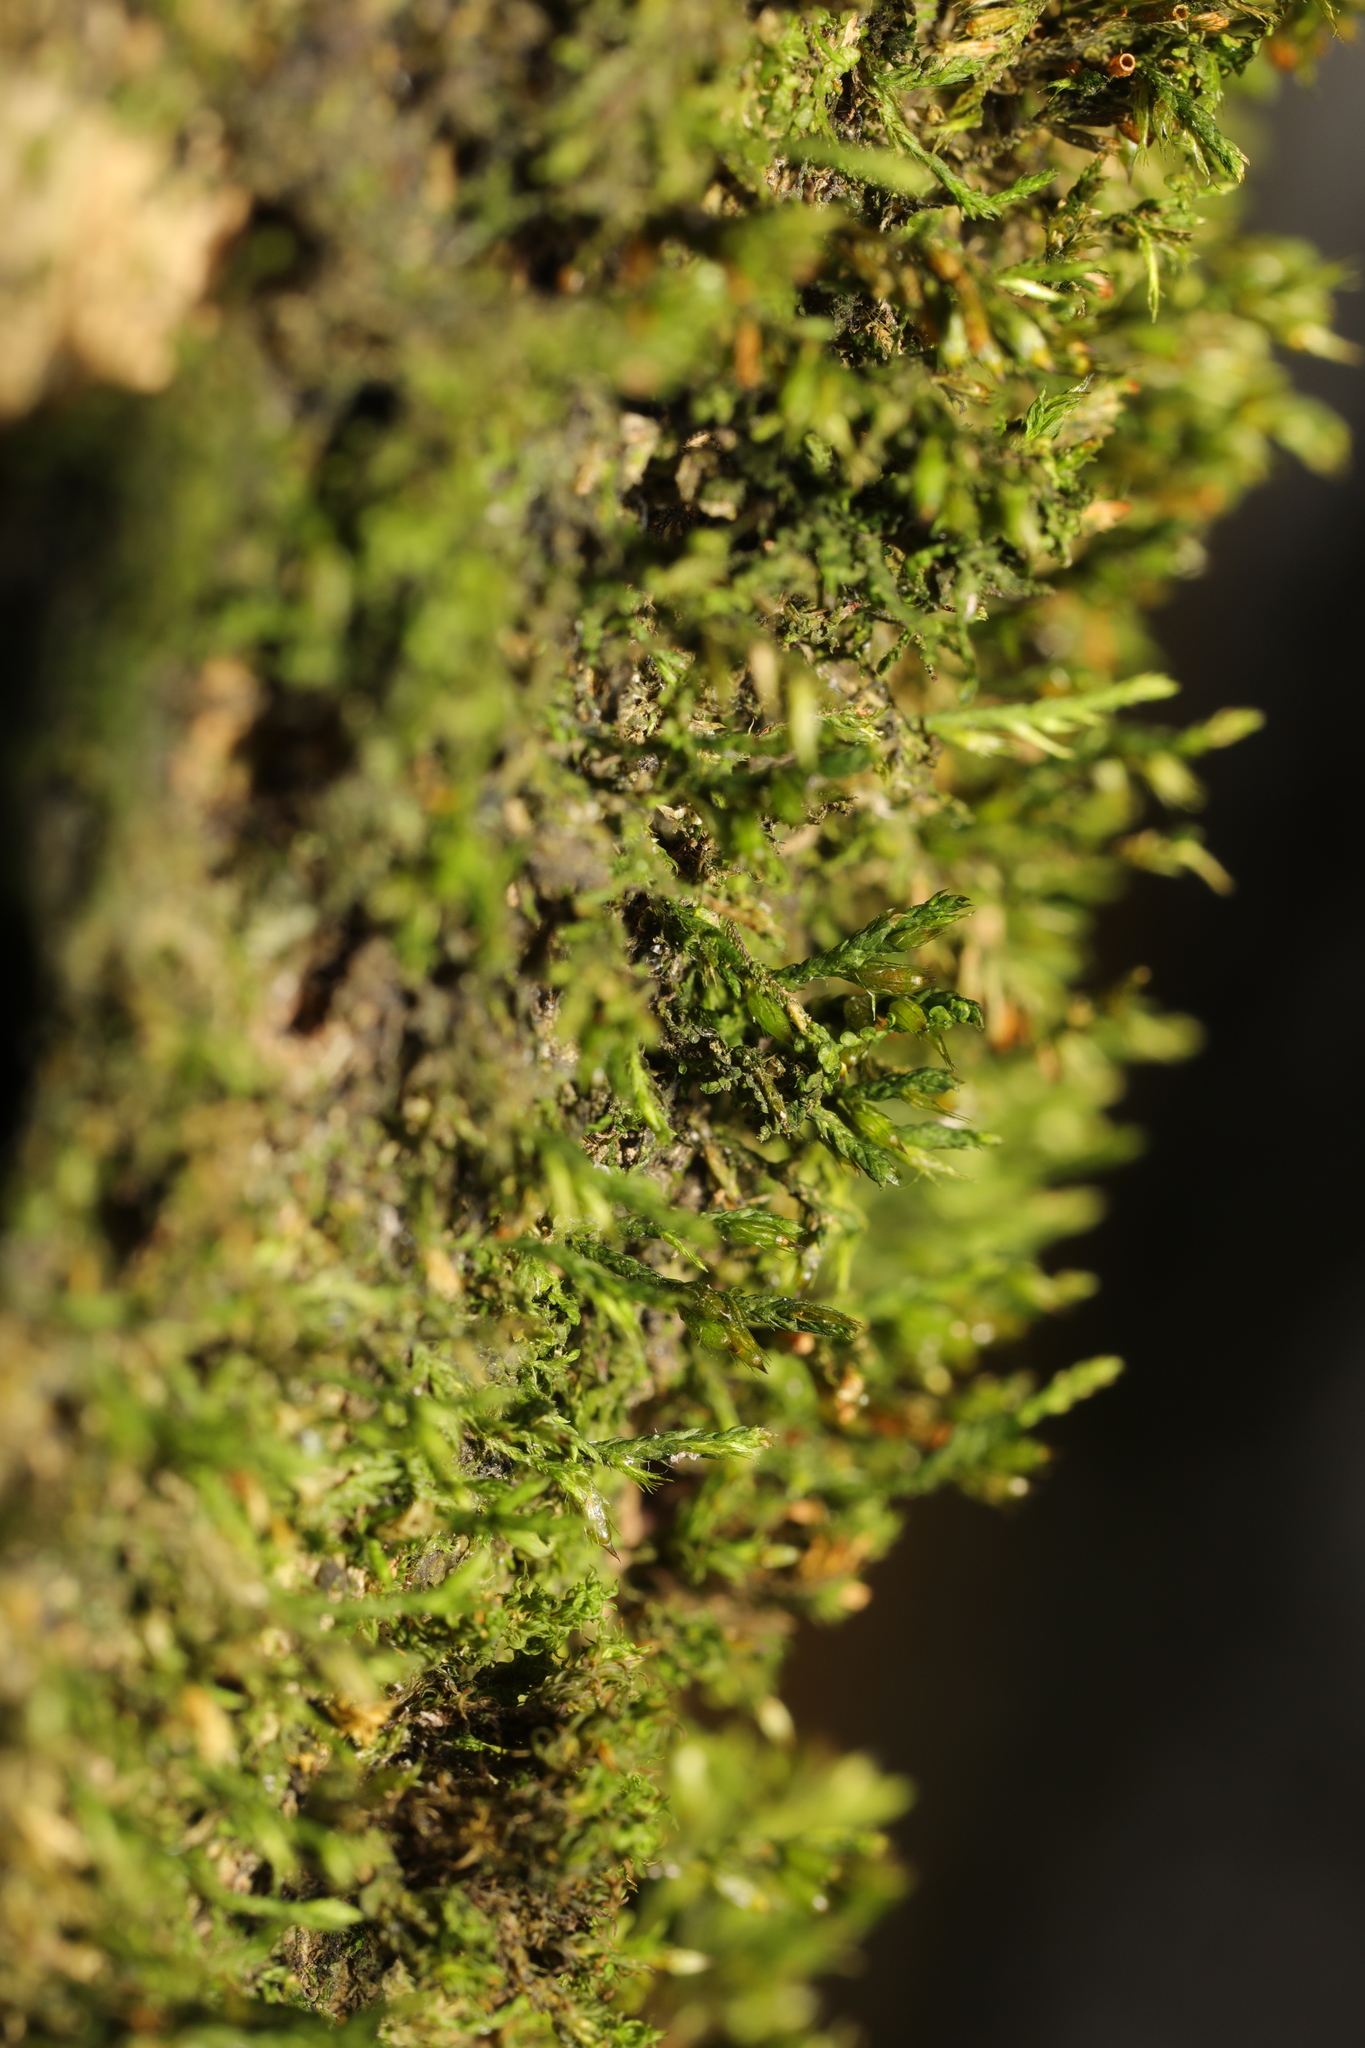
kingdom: Plantae
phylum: Bryophyta
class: Bryopsida
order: Hypnales
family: Cryphaeaceae
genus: Cryphaea
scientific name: Cryphaea heteromalla
